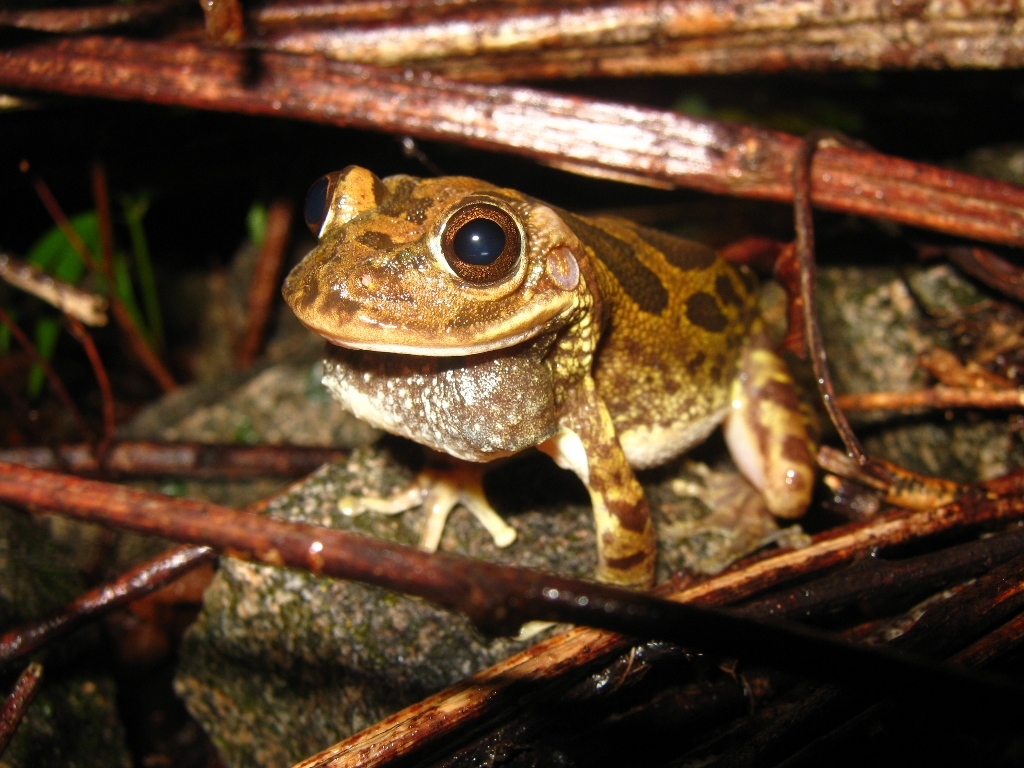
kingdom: Animalia
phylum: Chordata
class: Amphibia
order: Anura
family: Hylidae
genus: Smilisca
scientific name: Smilisca fodiens
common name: Lowland burrowing treefrog
